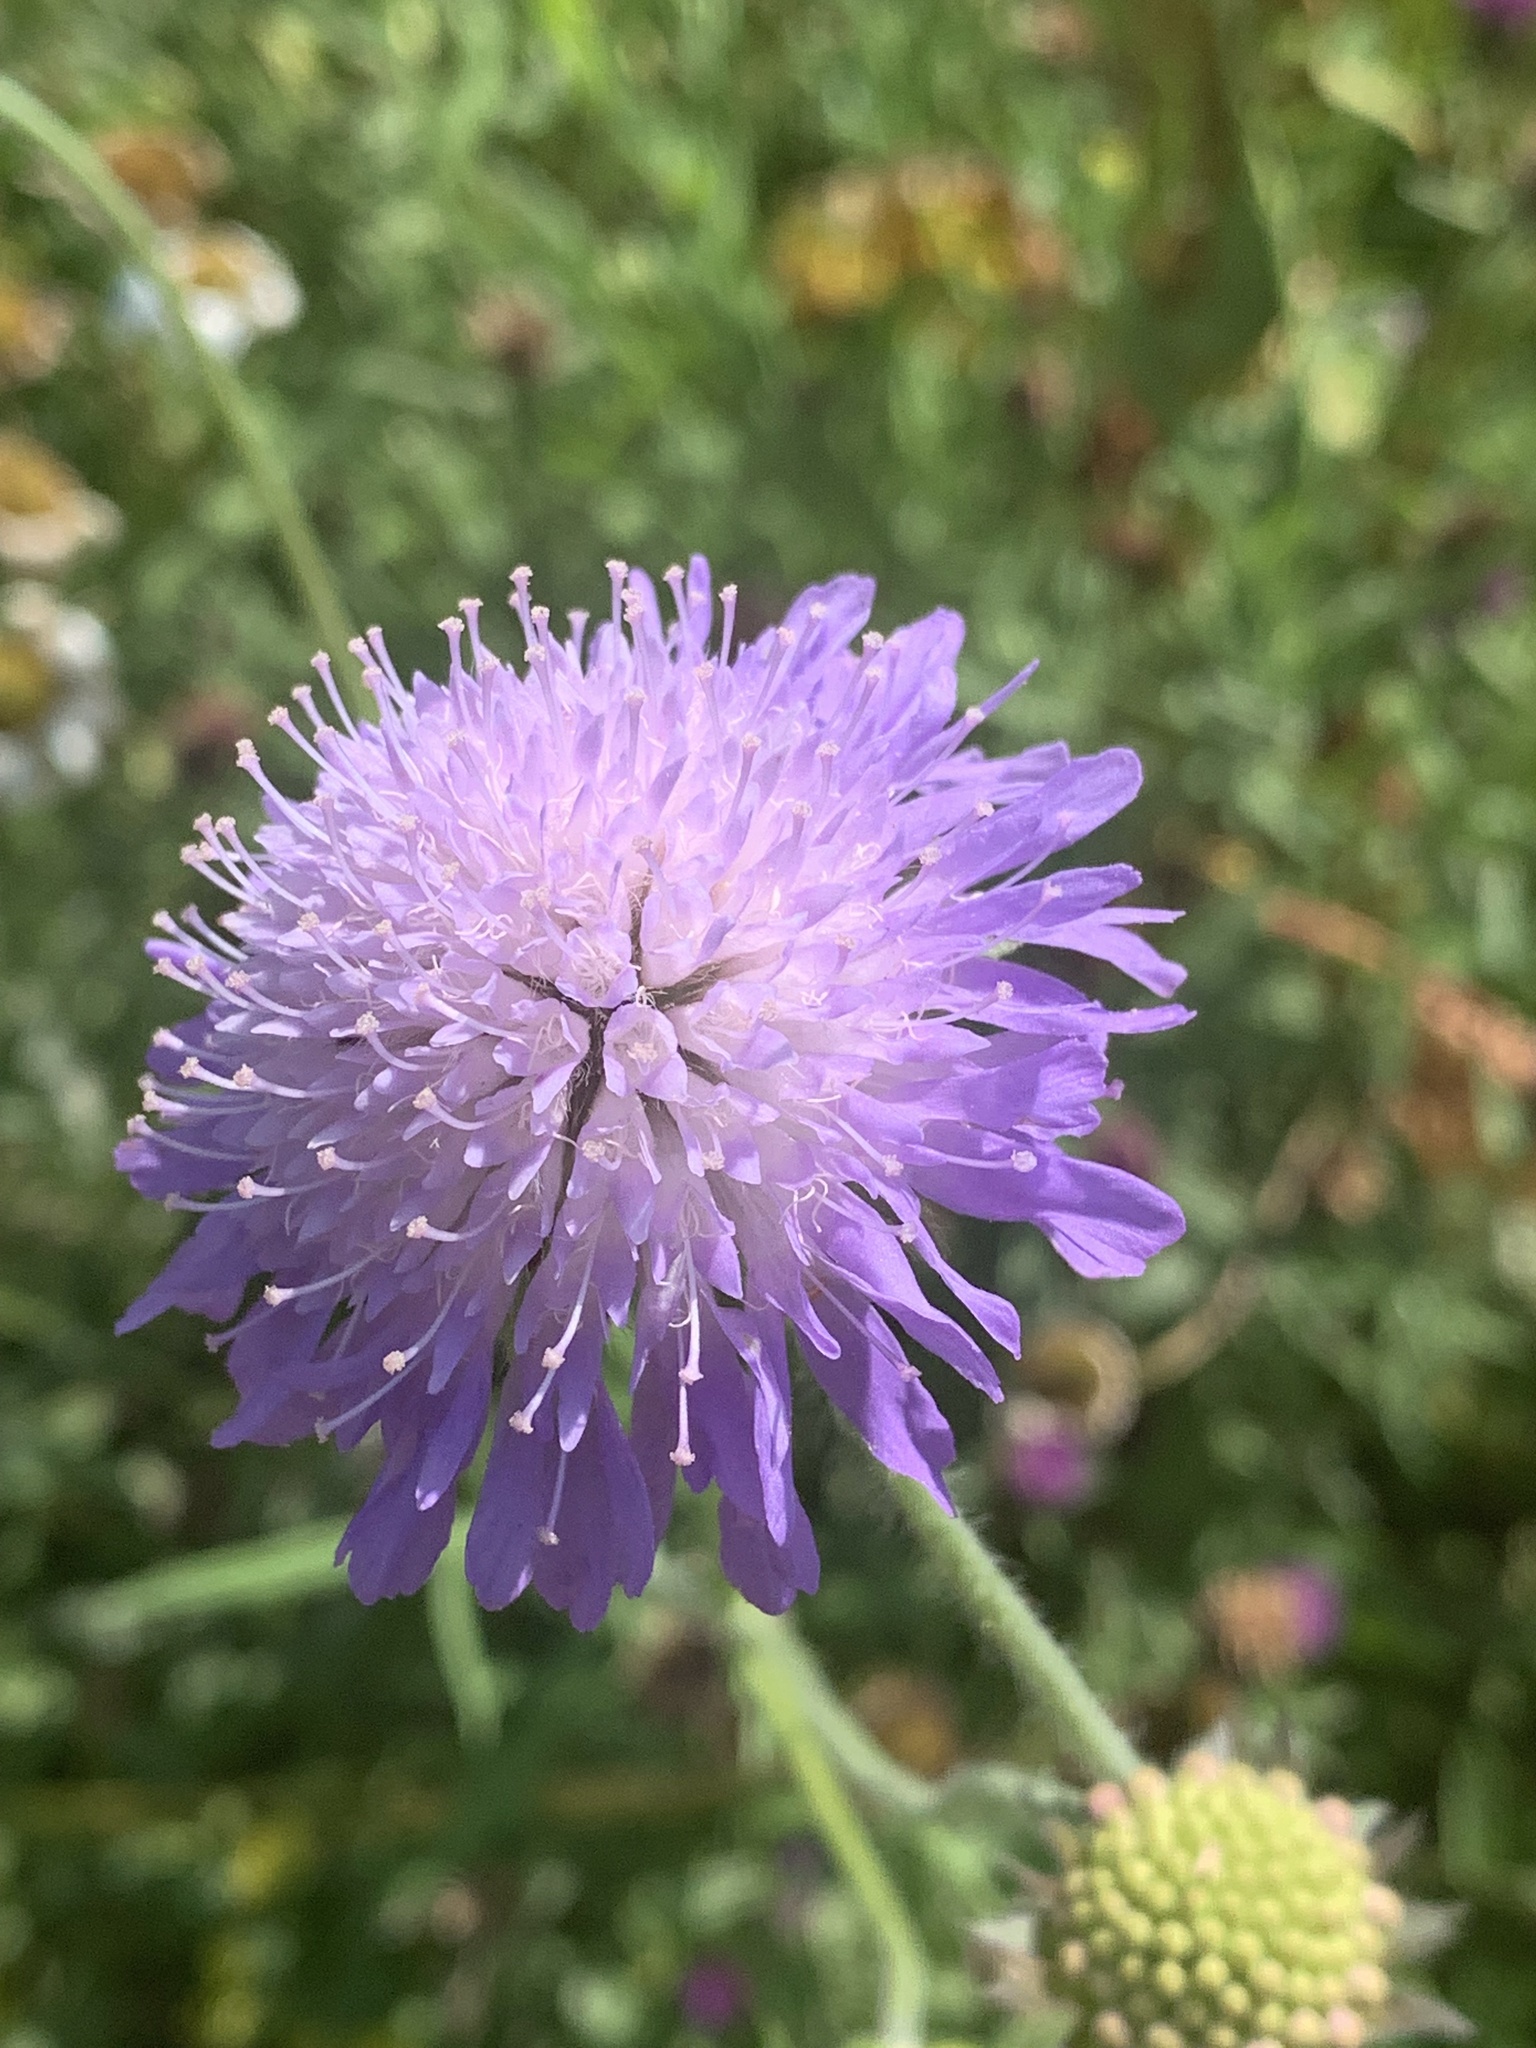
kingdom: Plantae
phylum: Tracheophyta
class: Magnoliopsida
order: Dipsacales
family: Caprifoliaceae
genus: Knautia
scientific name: Knautia arvensis
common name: Field scabiosa
